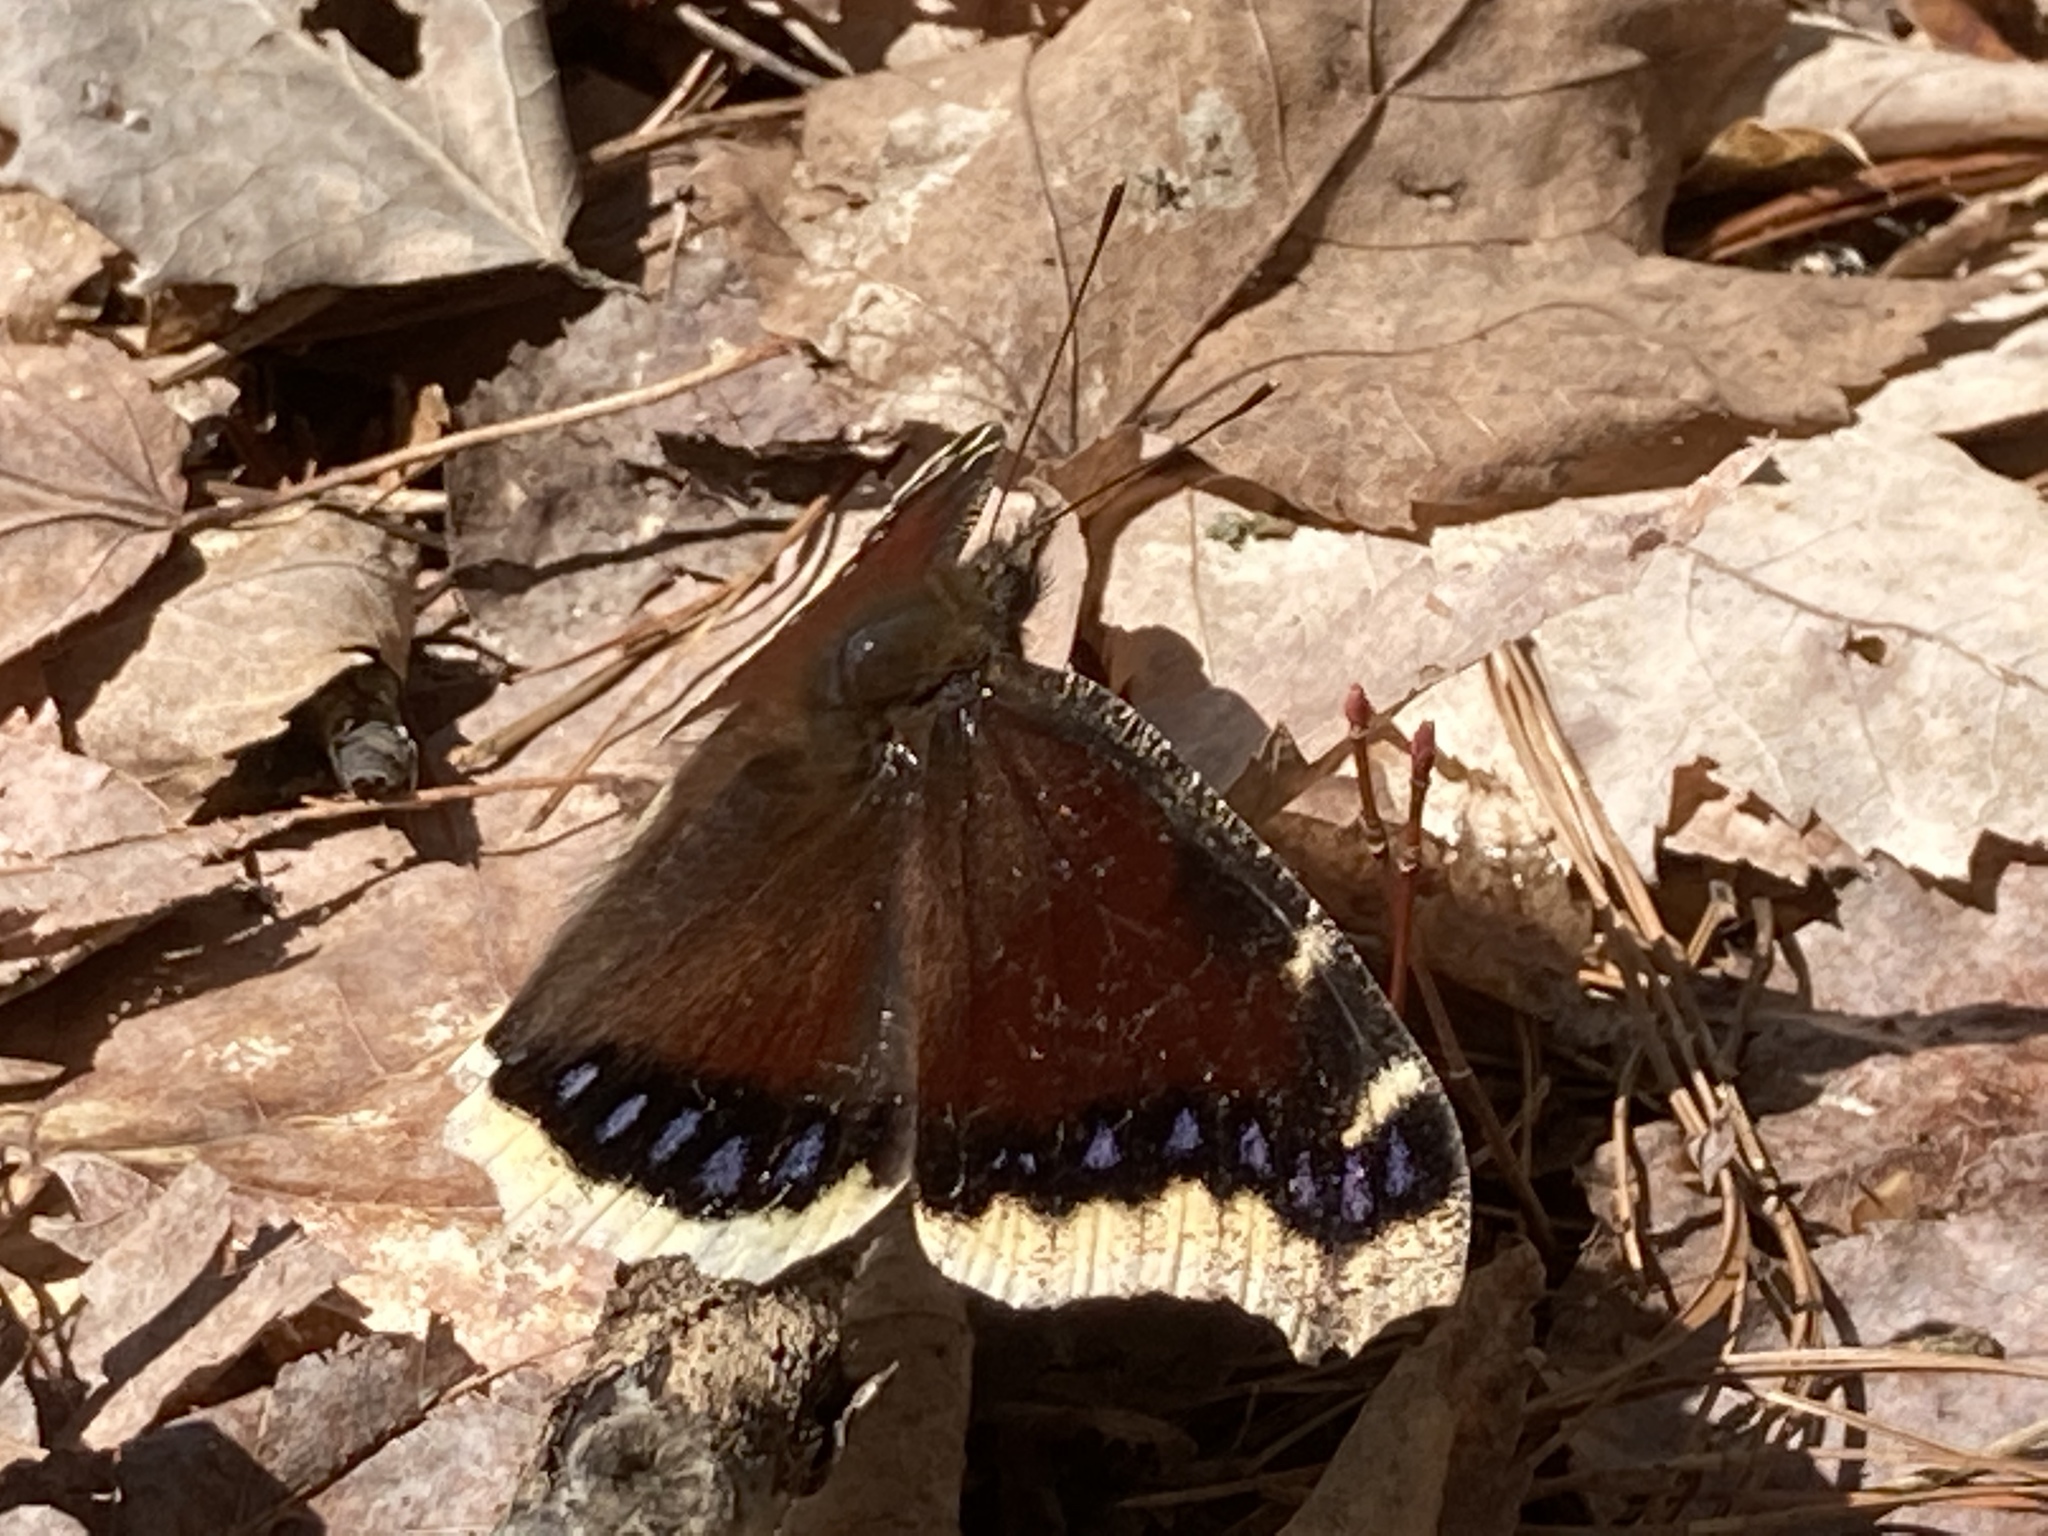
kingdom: Animalia
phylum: Arthropoda
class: Insecta
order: Lepidoptera
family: Nymphalidae
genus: Nymphalis
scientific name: Nymphalis antiopa
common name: Camberwell beauty
